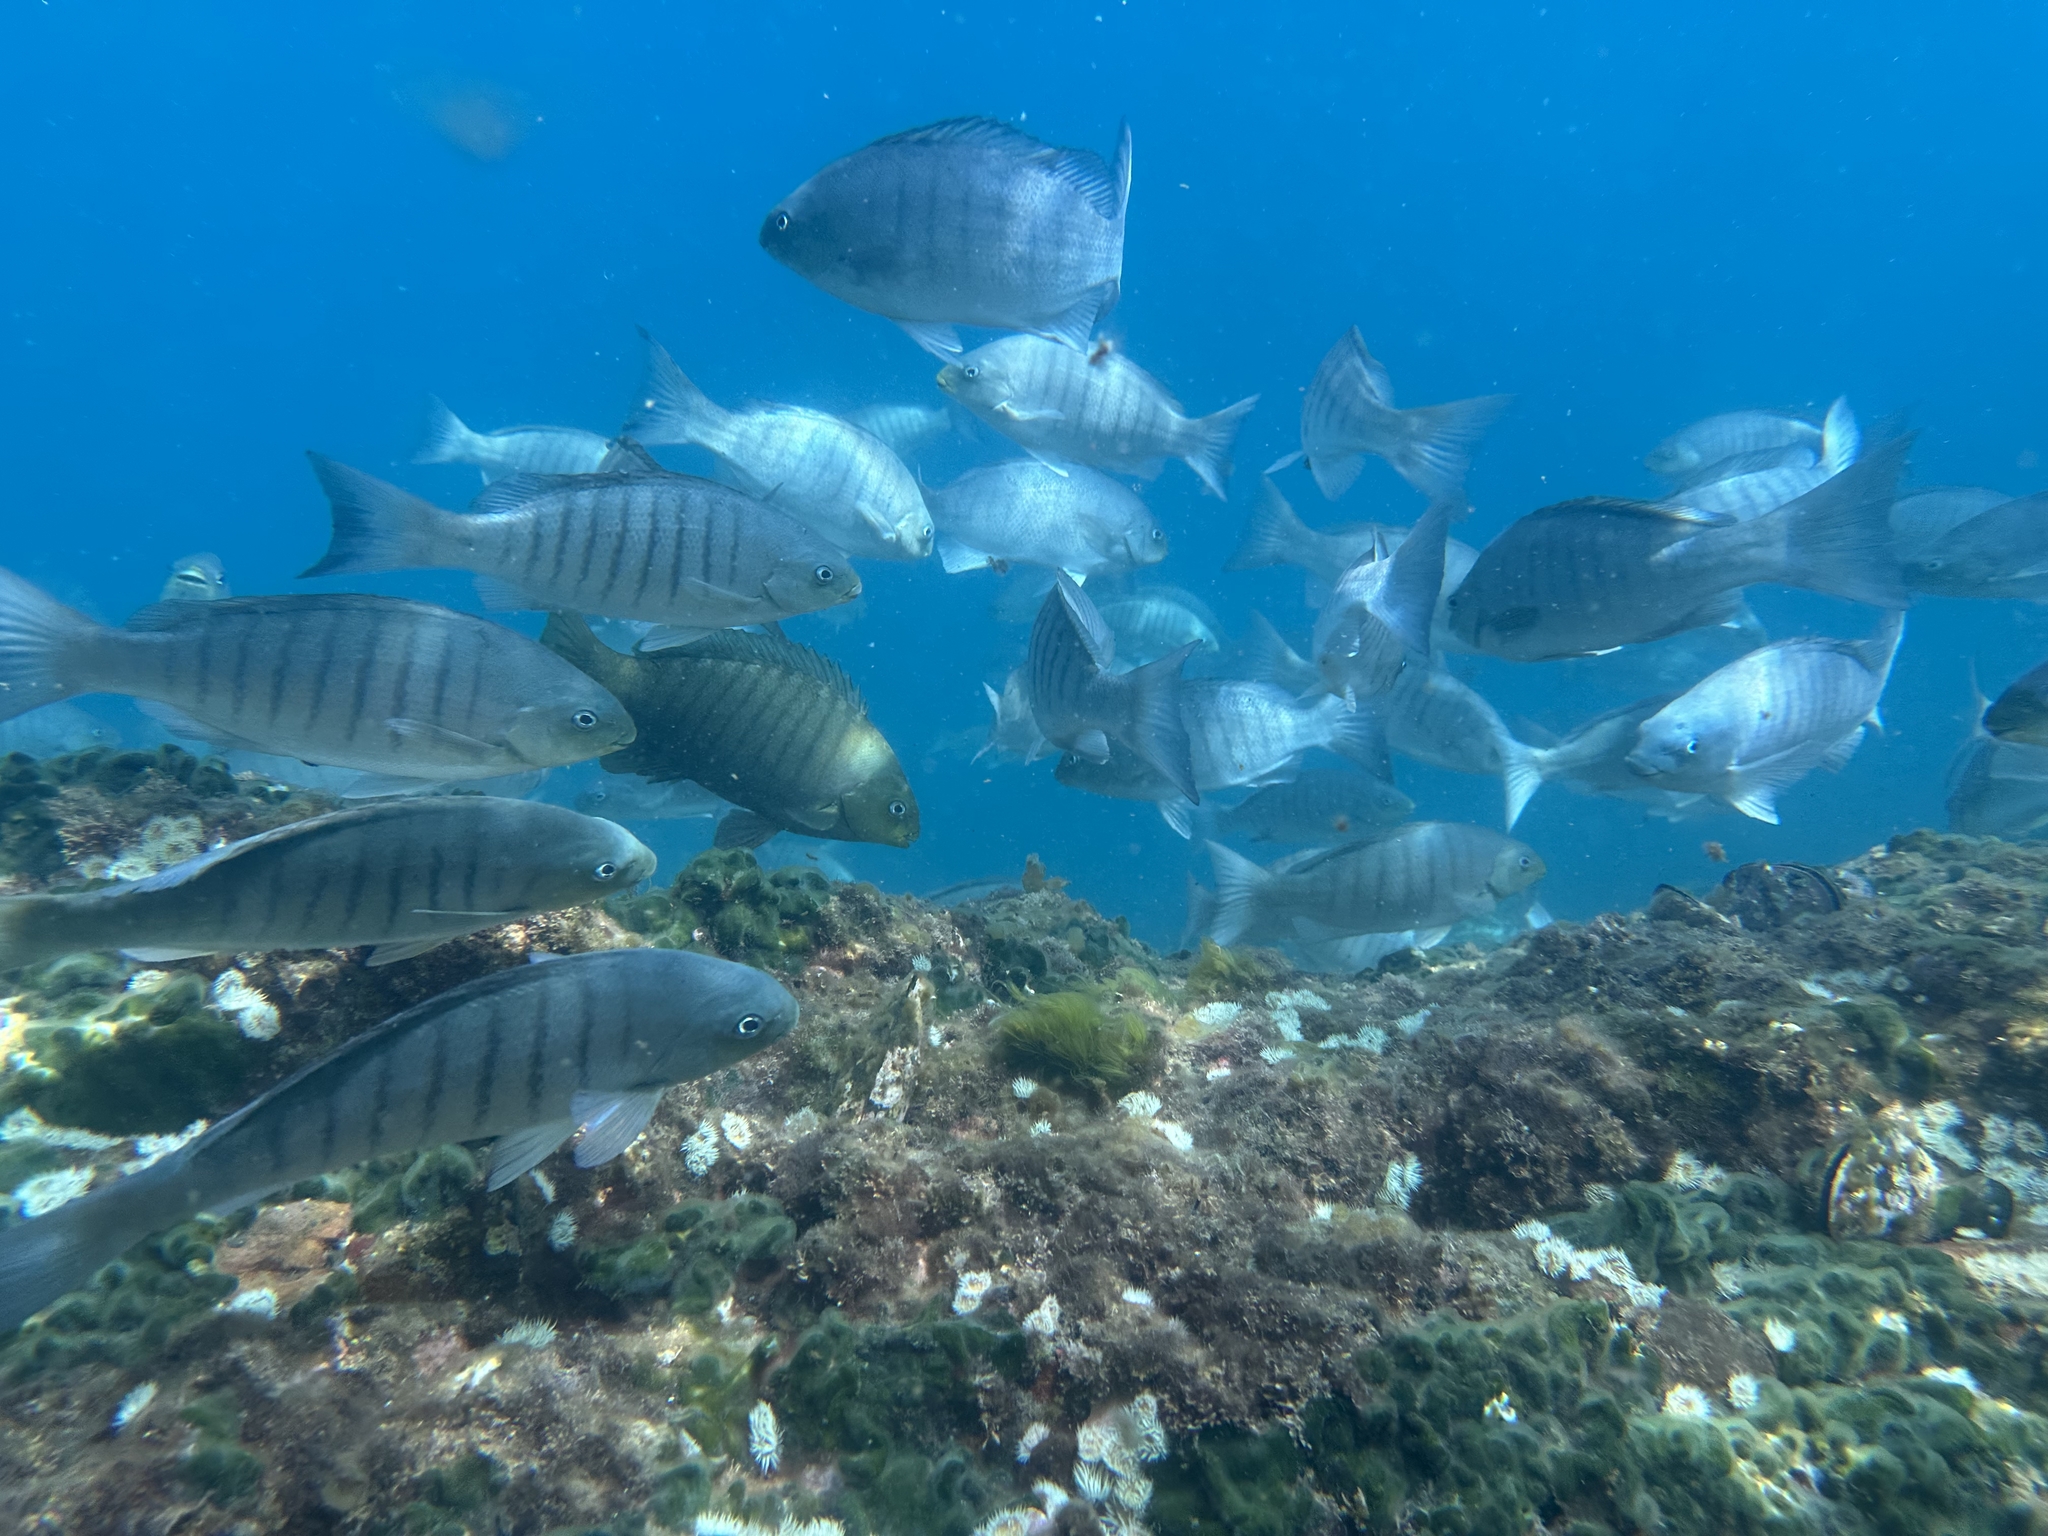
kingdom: Animalia
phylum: Chordata
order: Perciformes
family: Kyphosidae
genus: Girella
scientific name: Girella tricuspidata
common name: Parore
